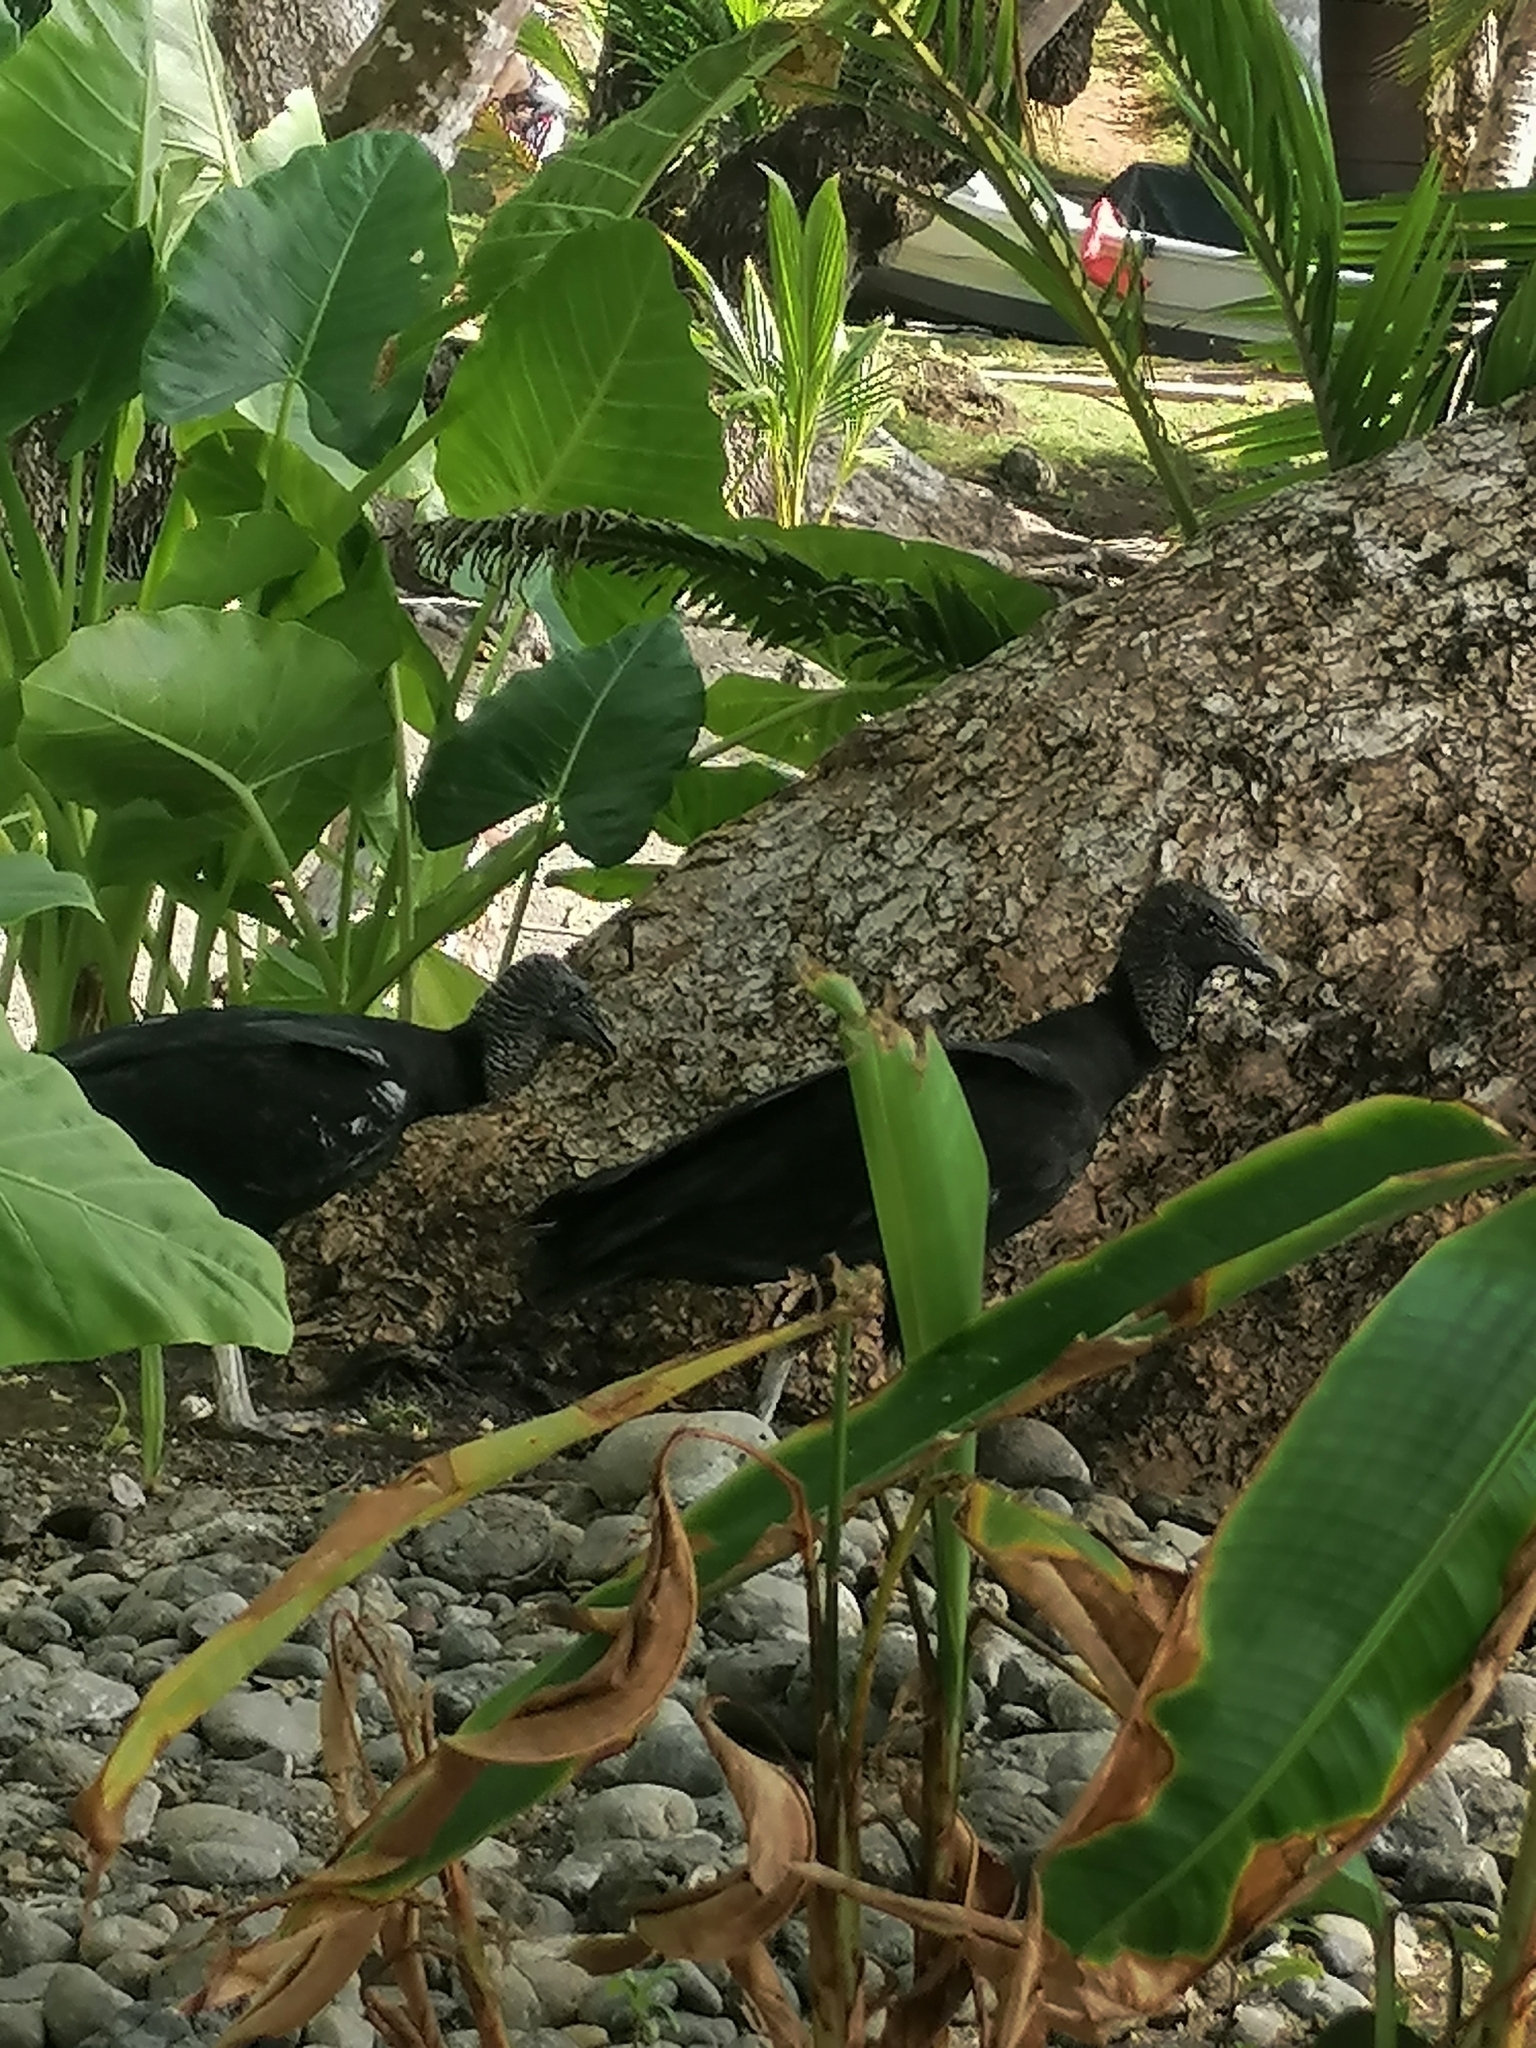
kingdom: Animalia
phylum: Chordata
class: Aves
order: Accipitriformes
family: Cathartidae
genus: Coragyps
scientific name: Coragyps atratus
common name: Black vulture
